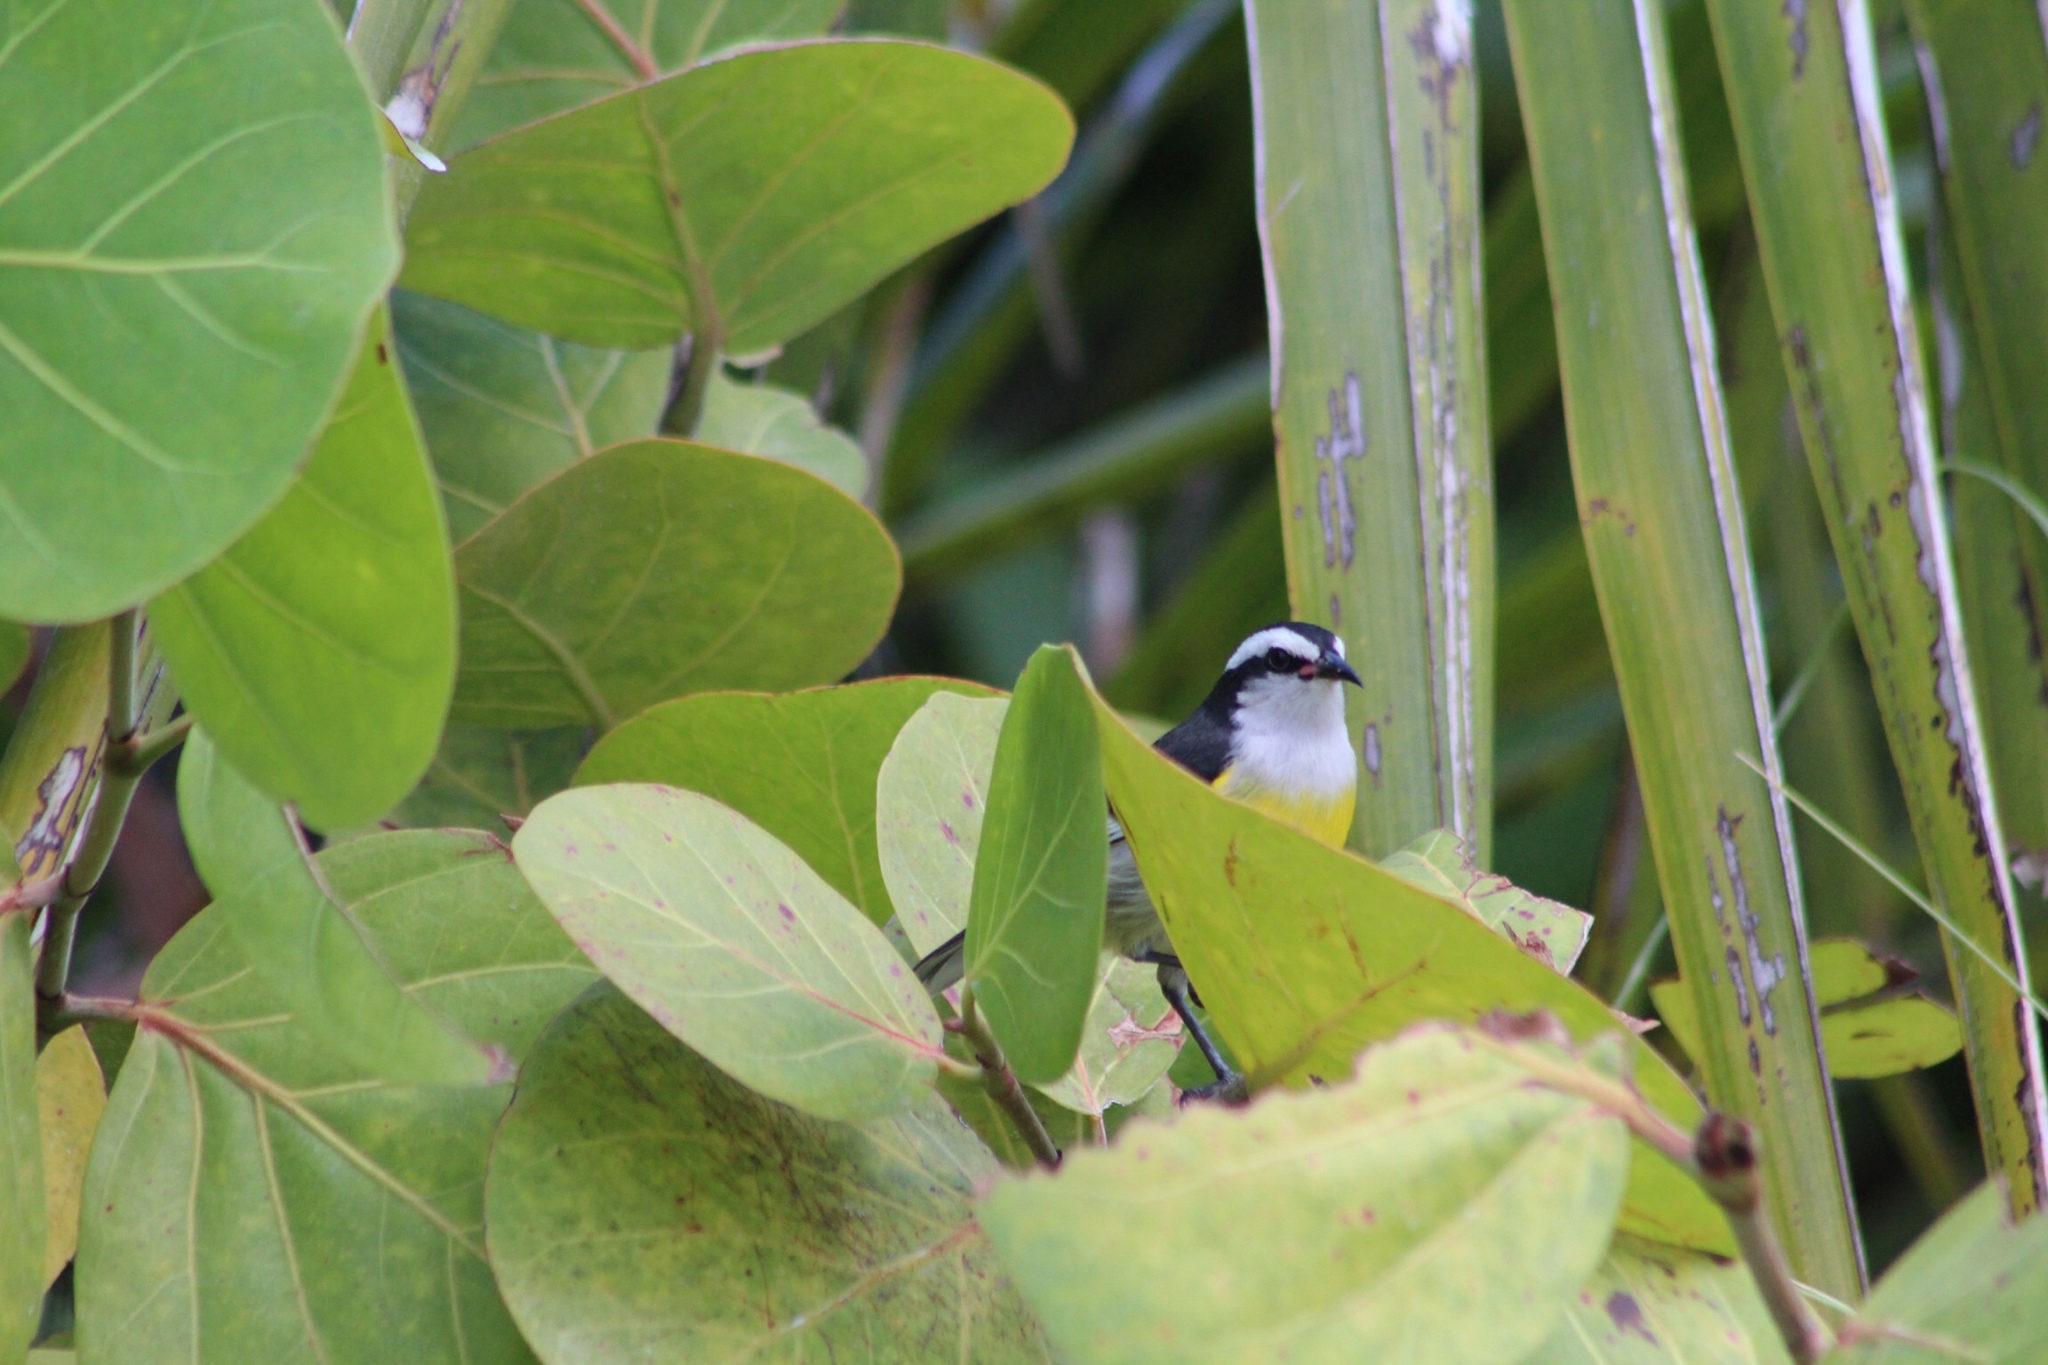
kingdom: Animalia
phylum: Chordata
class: Aves
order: Passeriformes
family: Thraupidae
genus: Coereba
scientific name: Coereba flaveola
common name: Bananaquit
